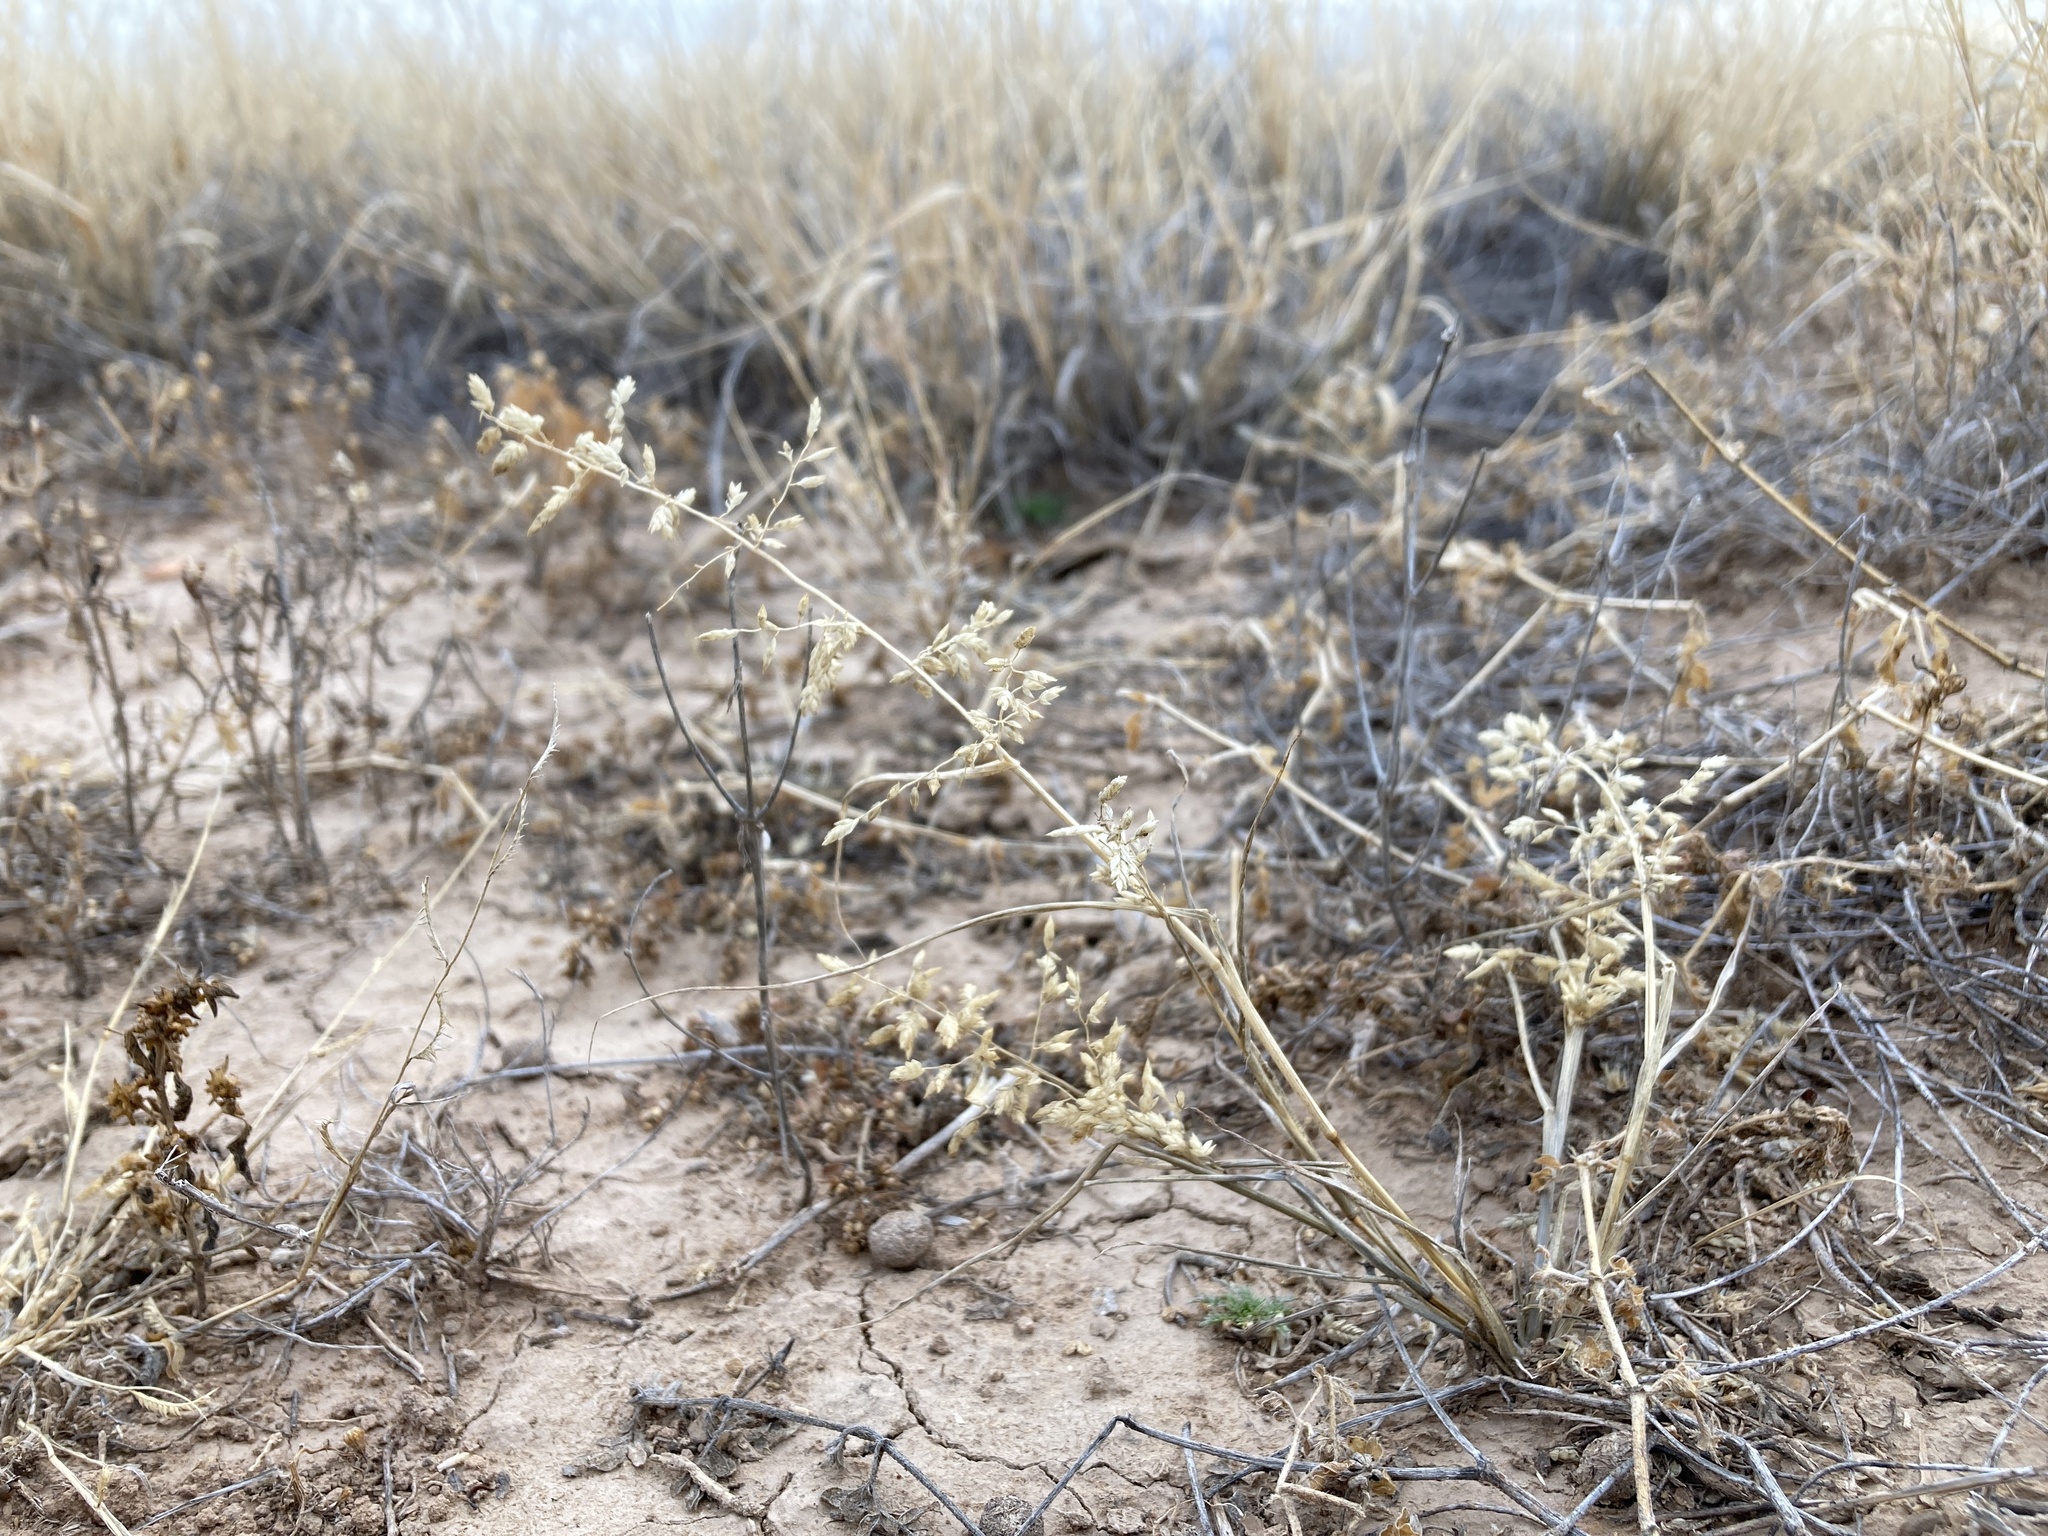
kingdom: Plantae
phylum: Tracheophyta
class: Liliopsida
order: Poales
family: Poaceae
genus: Eragrostis
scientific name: Eragrostis cilianensis
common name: Stinkgrass
